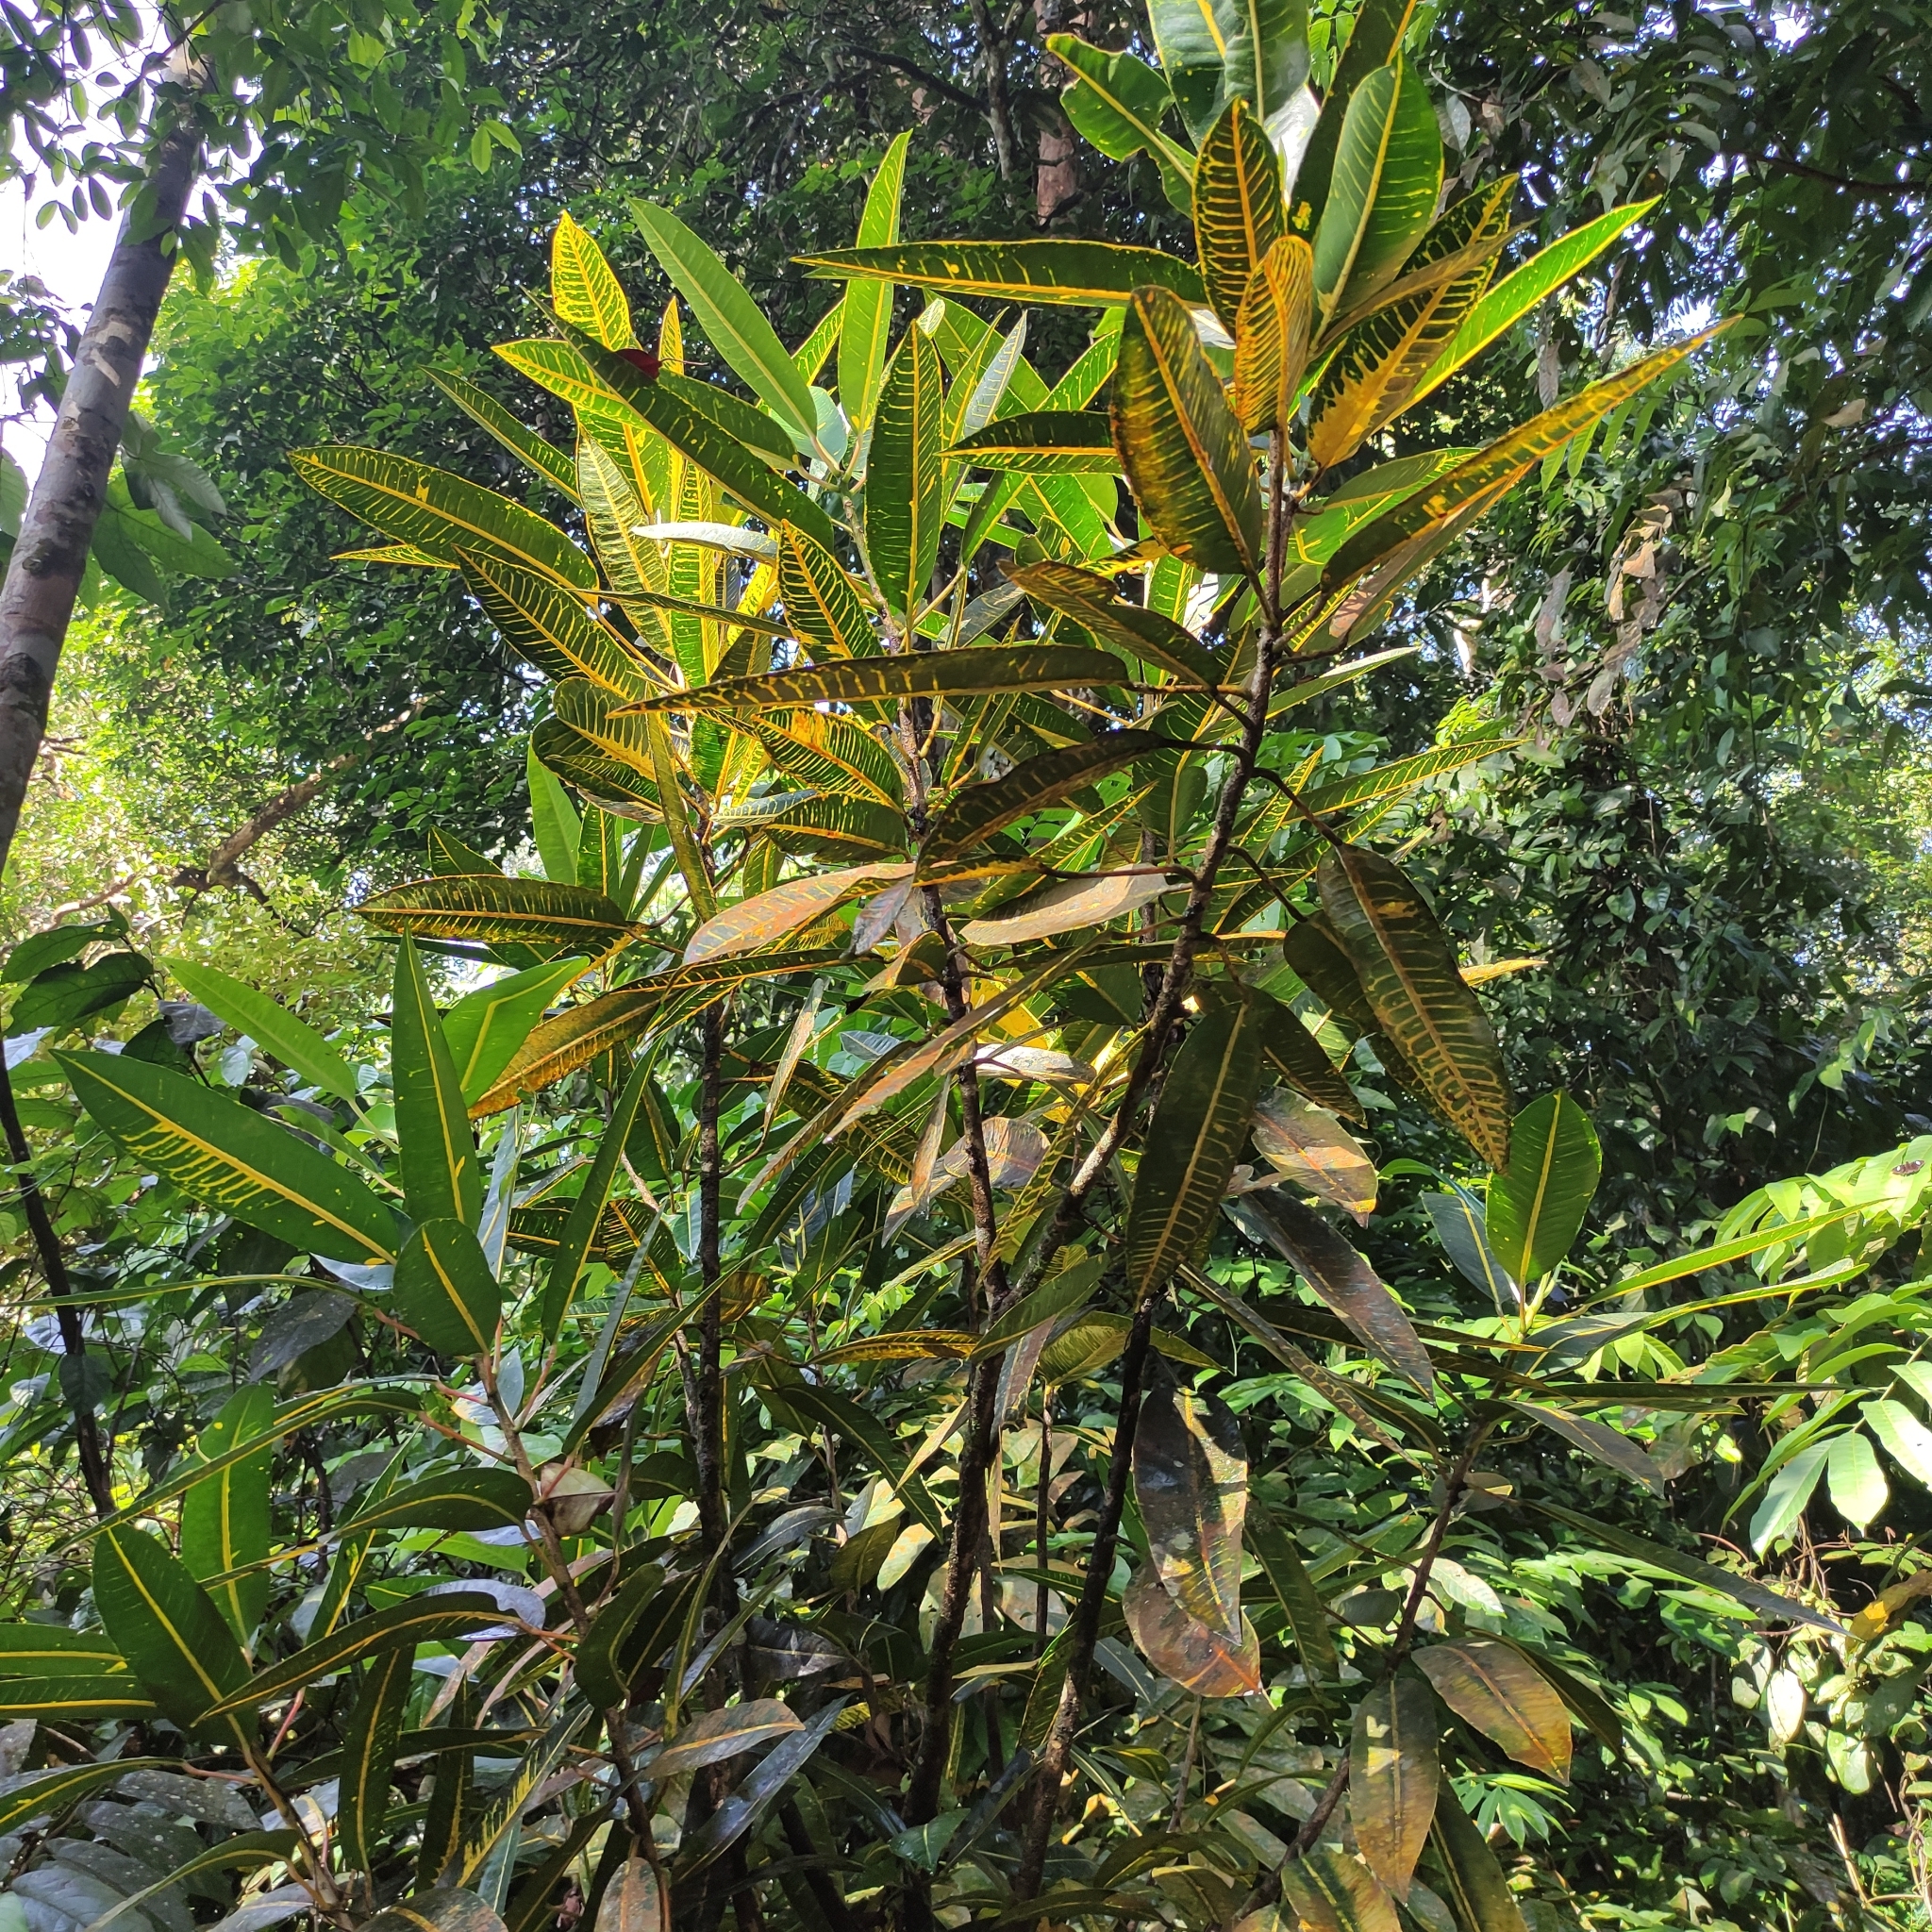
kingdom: Plantae
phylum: Tracheophyta
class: Magnoliopsida
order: Malpighiales
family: Euphorbiaceae
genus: Codiaeum
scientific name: Codiaeum variegatum
